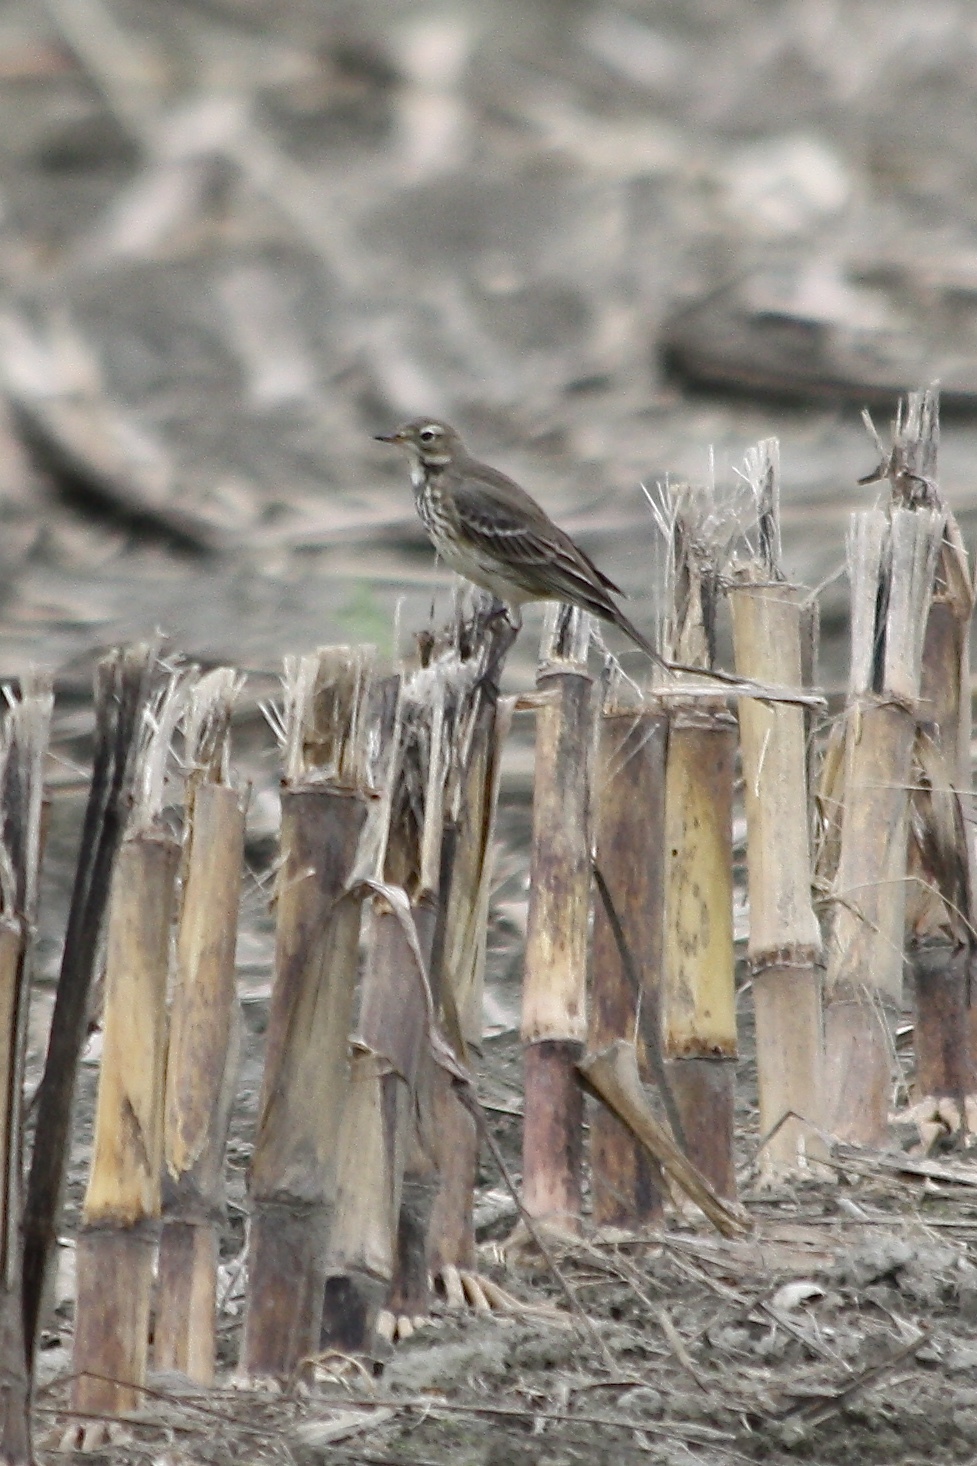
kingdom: Animalia
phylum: Chordata
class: Aves
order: Passeriformes
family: Motacillidae
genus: Anthus
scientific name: Anthus rubescens
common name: Buff-bellied pipit
